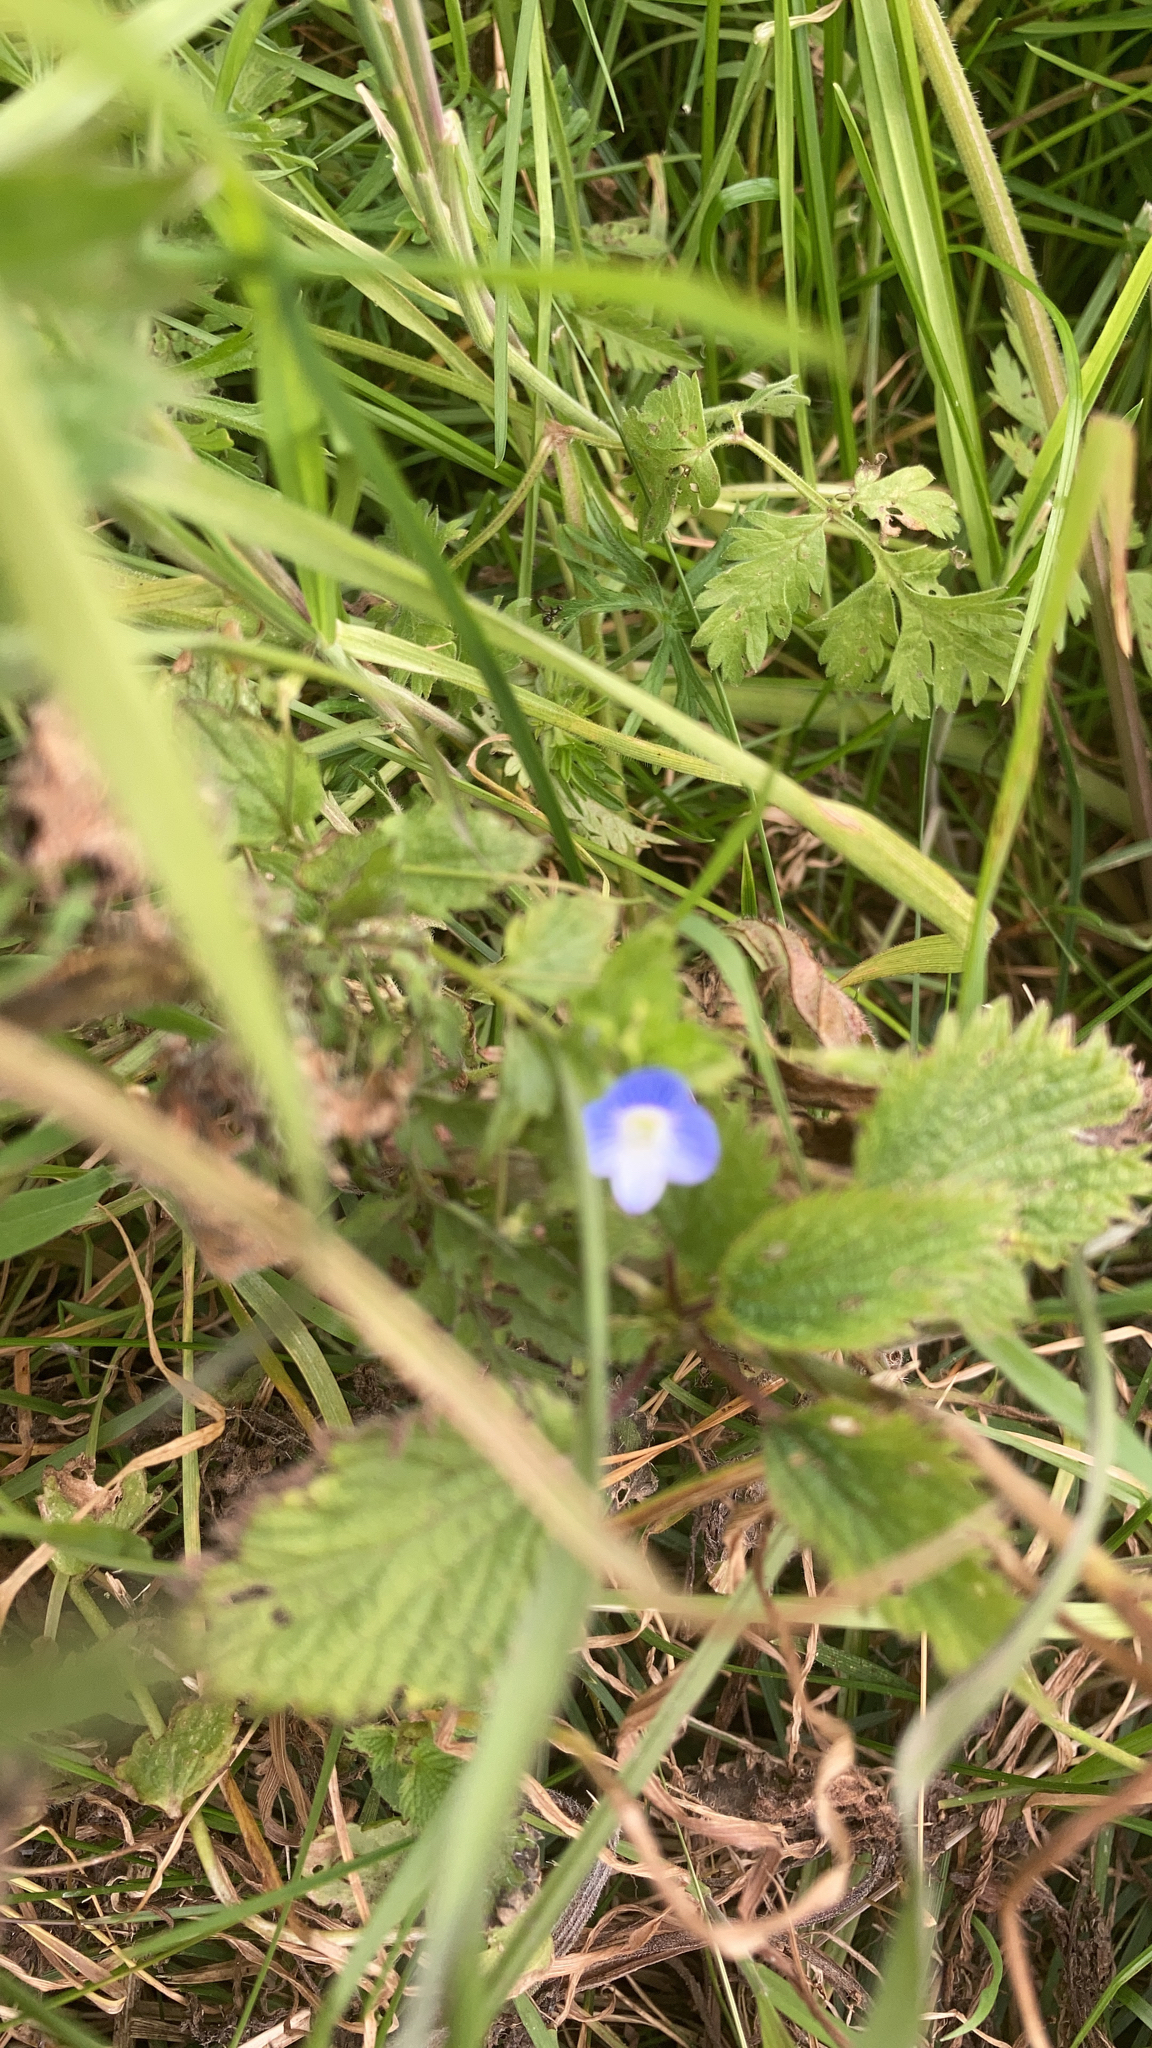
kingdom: Plantae
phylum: Tracheophyta
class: Magnoliopsida
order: Lamiales
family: Plantaginaceae
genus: Veronica
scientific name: Veronica persica
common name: Common field-speedwell
